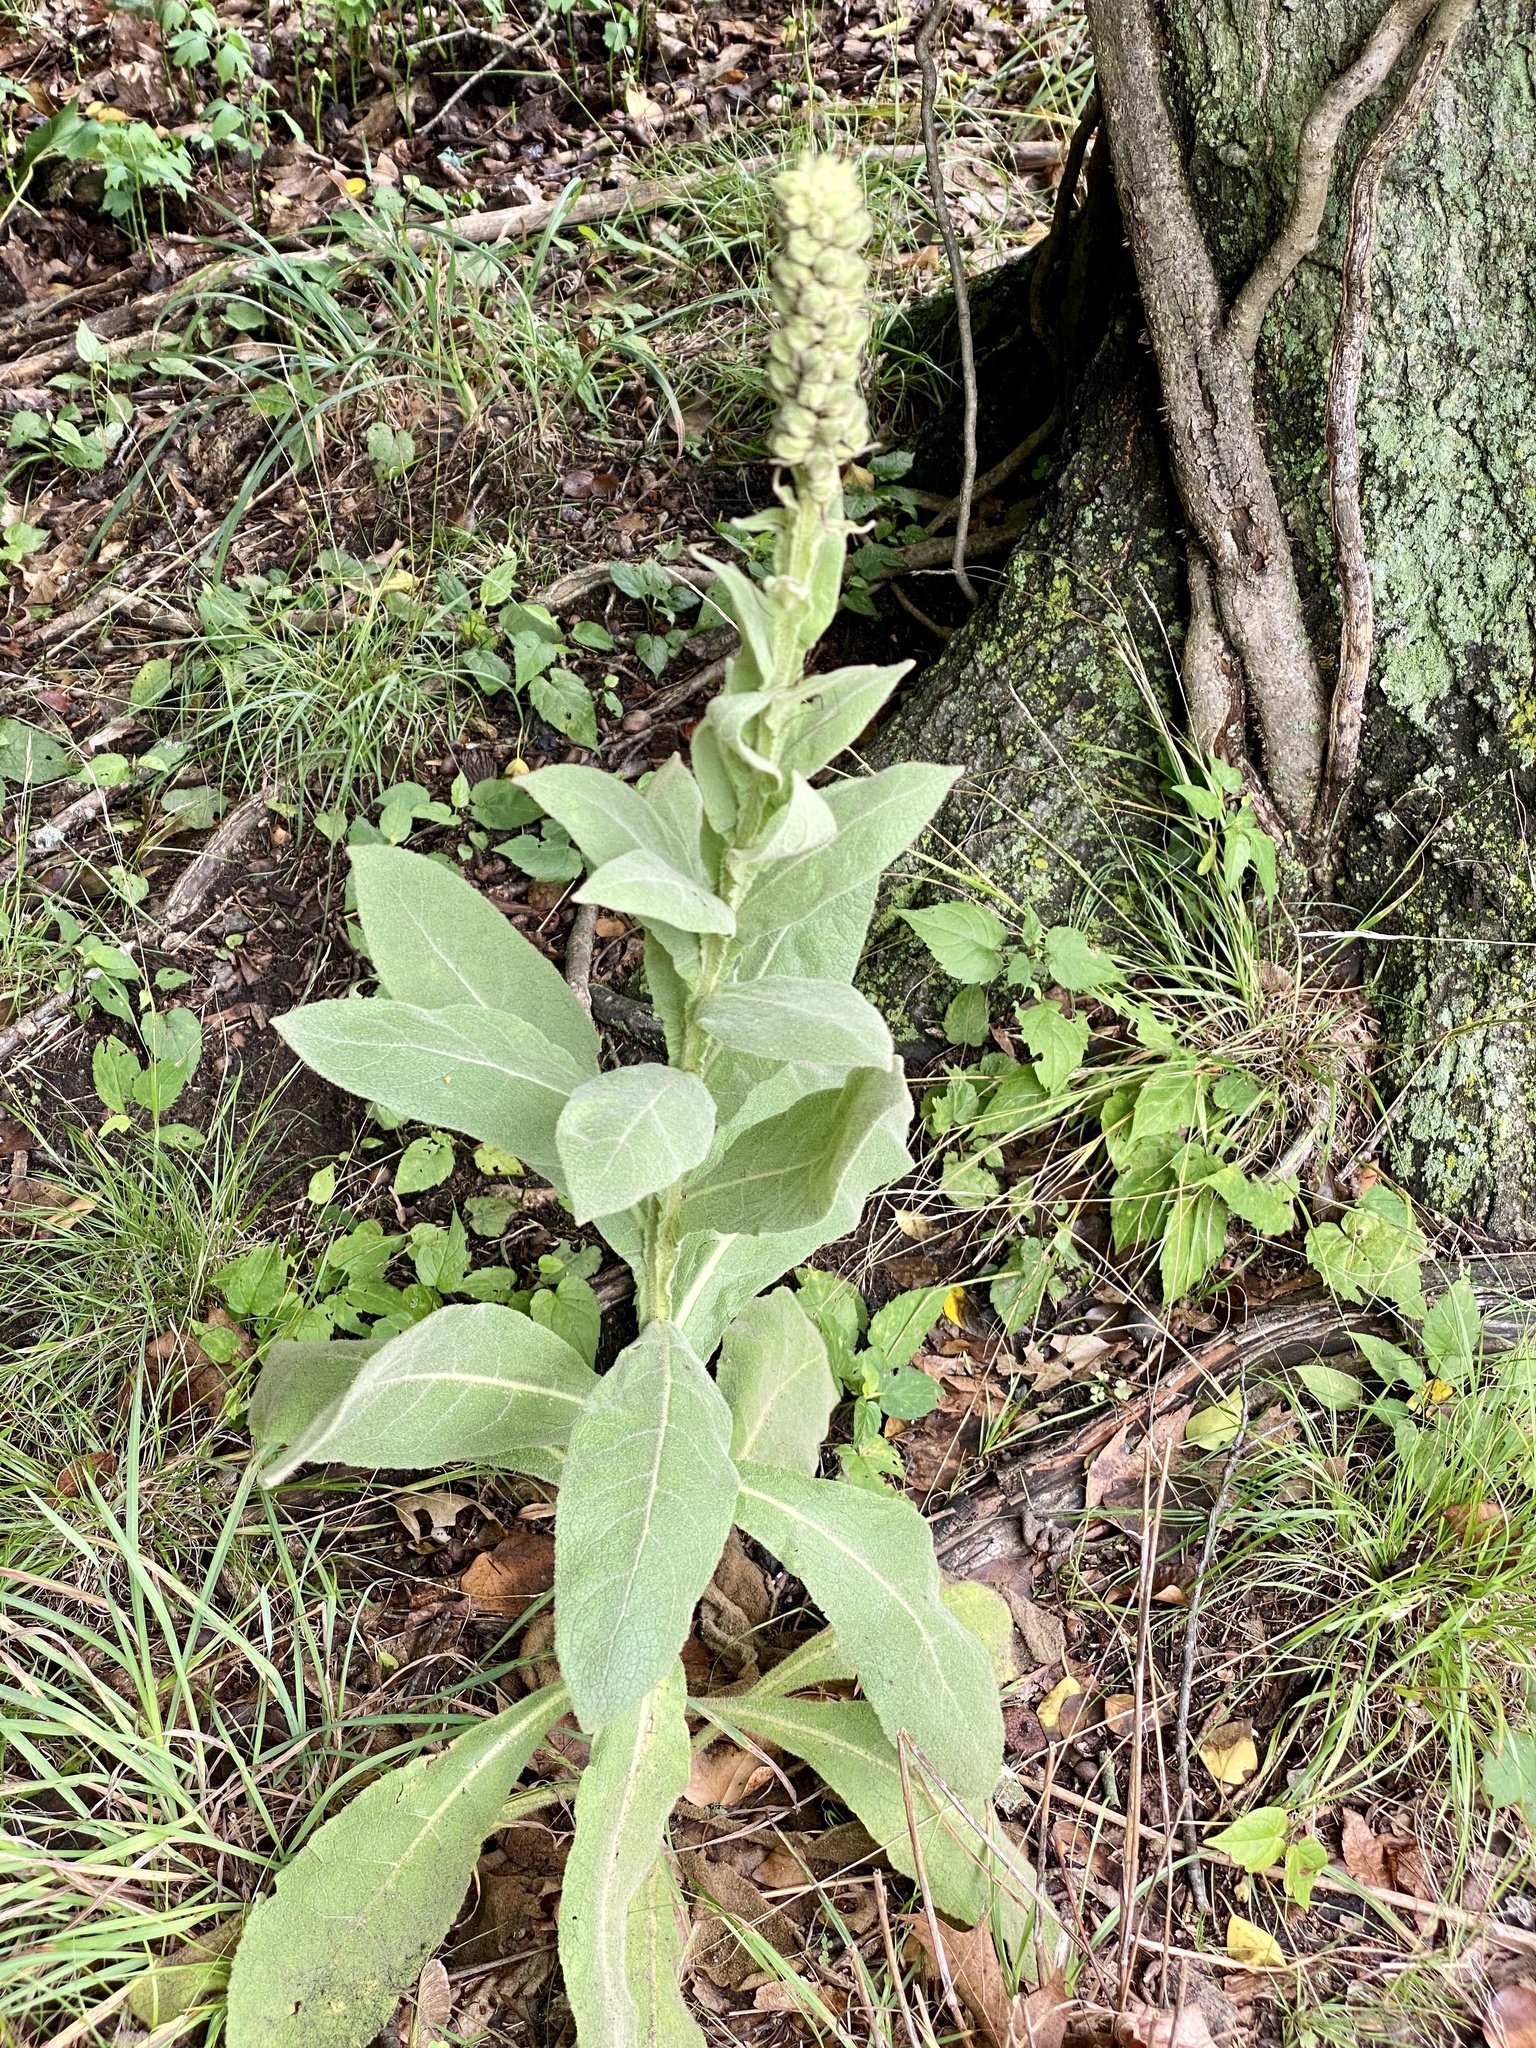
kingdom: Plantae
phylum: Tracheophyta
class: Magnoliopsida
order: Lamiales
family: Scrophulariaceae
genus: Verbascum
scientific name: Verbascum thapsus
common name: Common mullein
